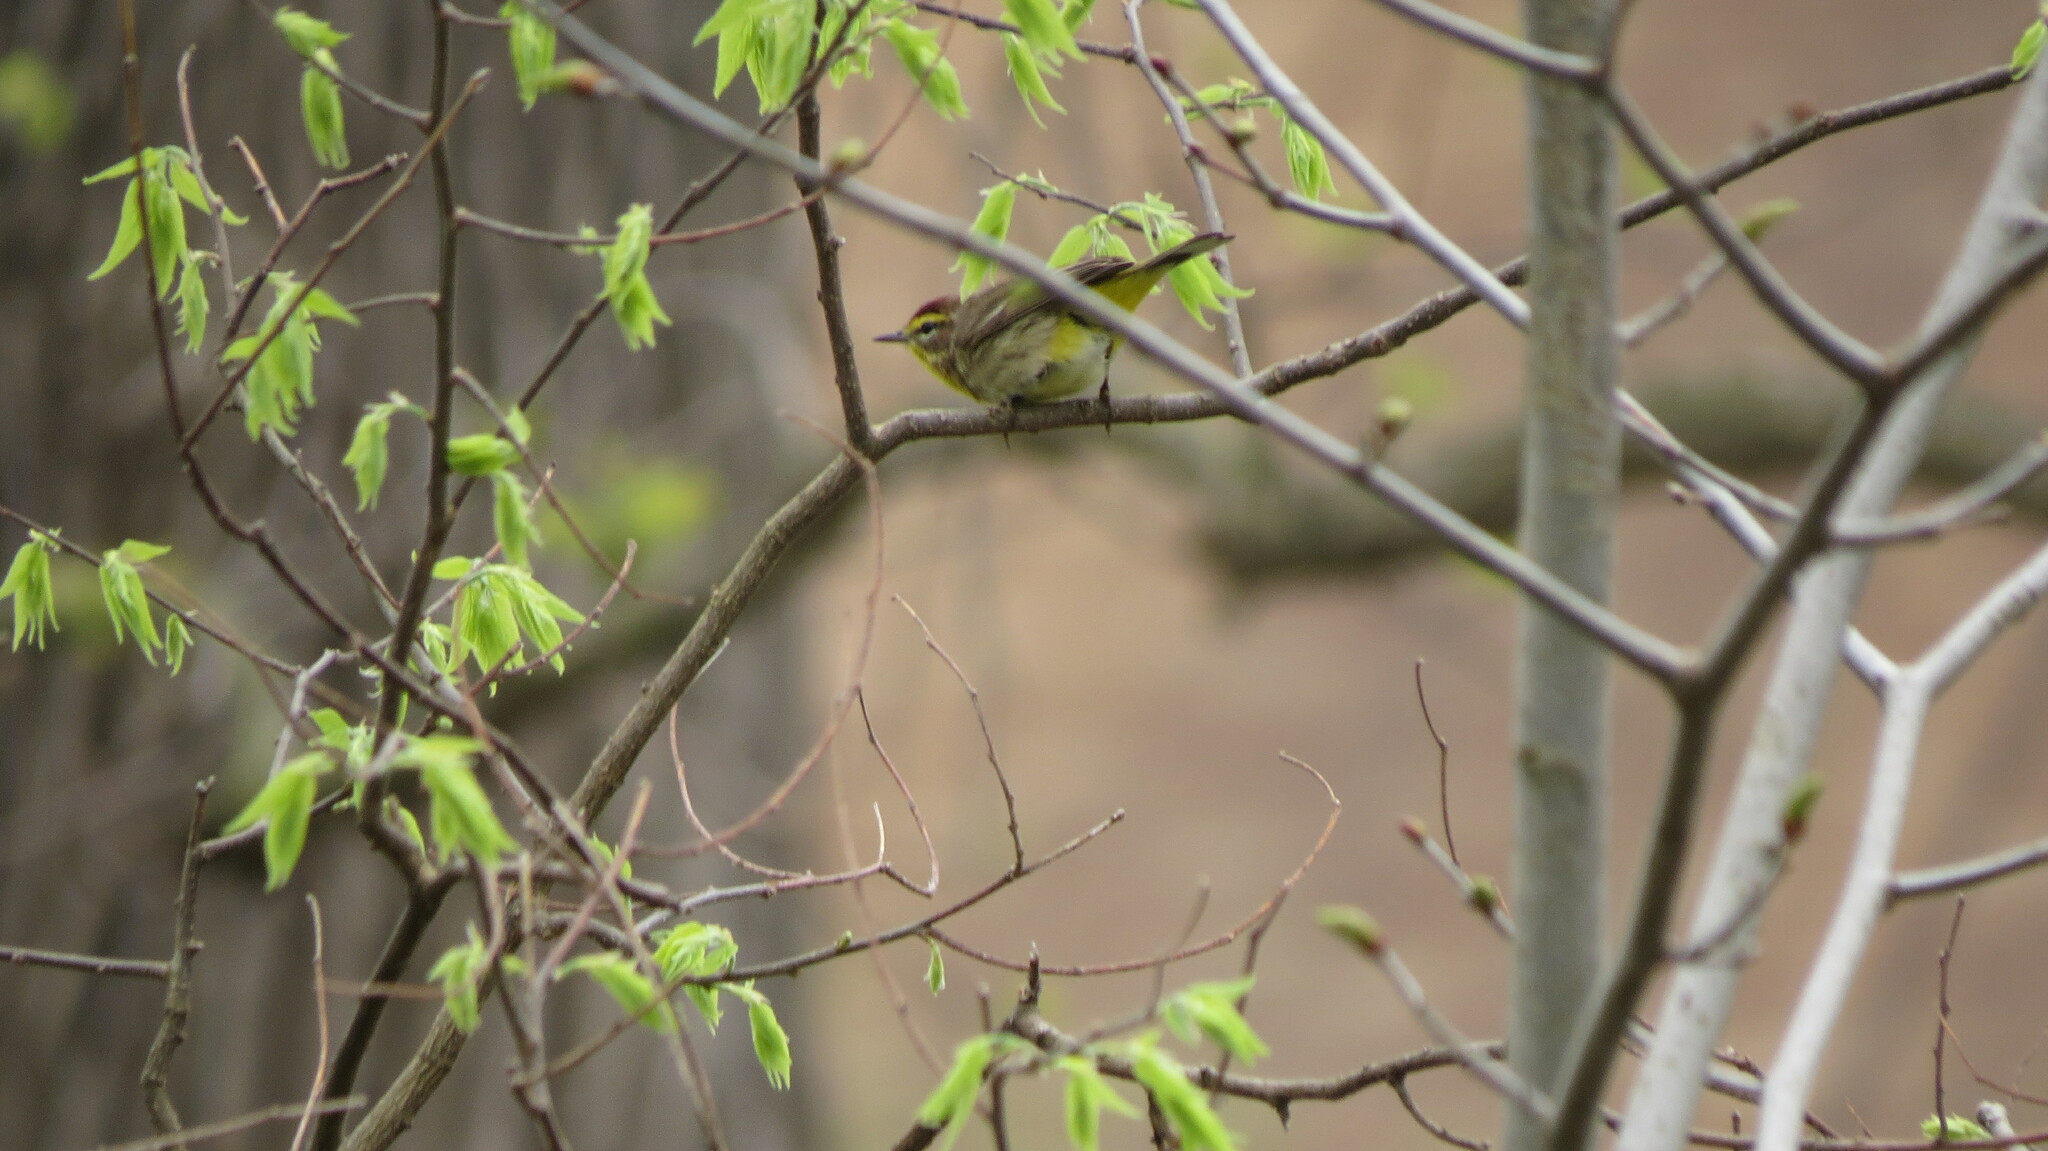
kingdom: Animalia
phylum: Chordata
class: Aves
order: Passeriformes
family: Parulidae
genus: Setophaga
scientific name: Setophaga palmarum
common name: Palm warbler
